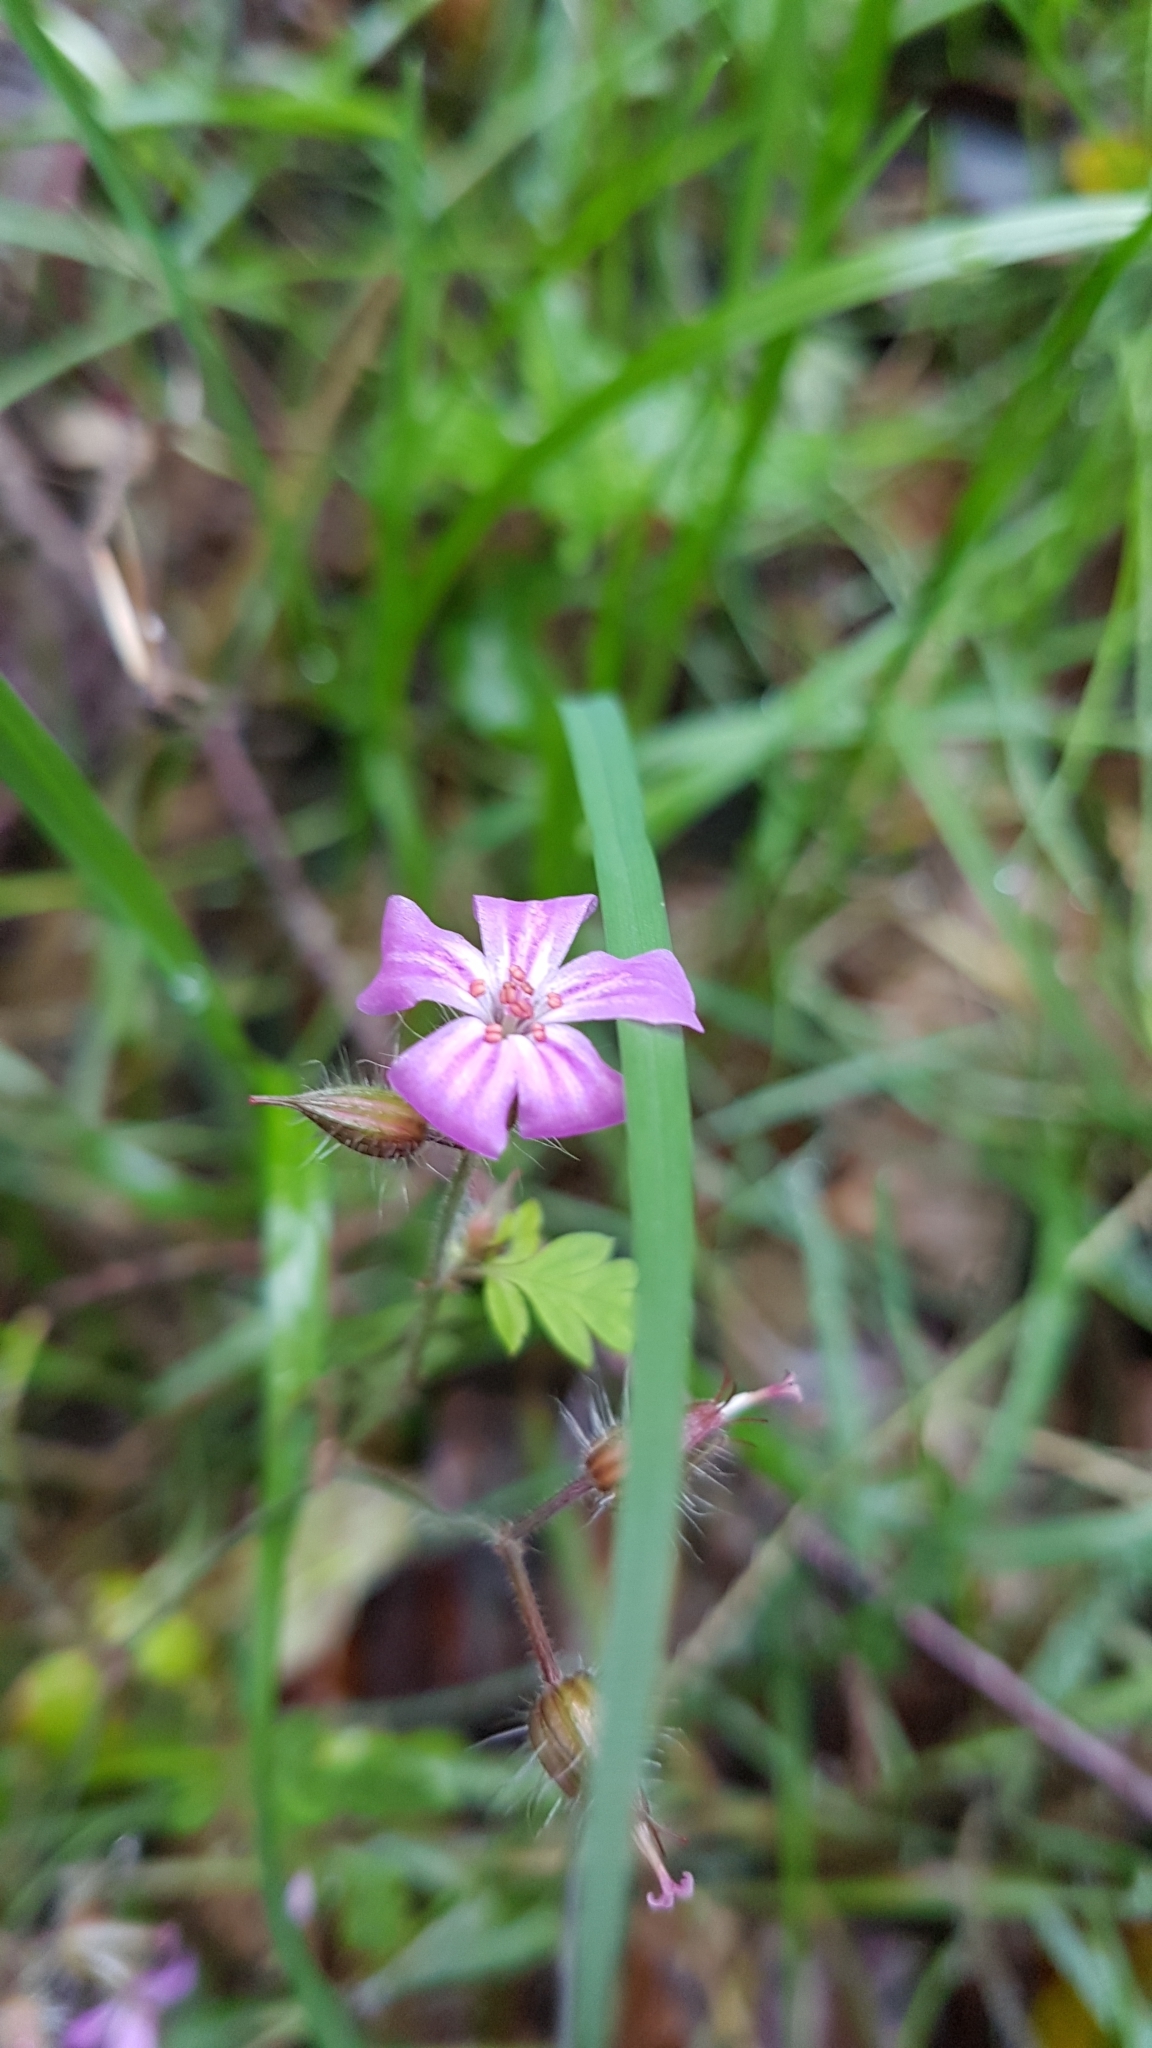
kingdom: Plantae
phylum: Tracheophyta
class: Magnoliopsida
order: Geraniales
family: Geraniaceae
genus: Geranium
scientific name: Geranium robertianum
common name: Herb-robert
